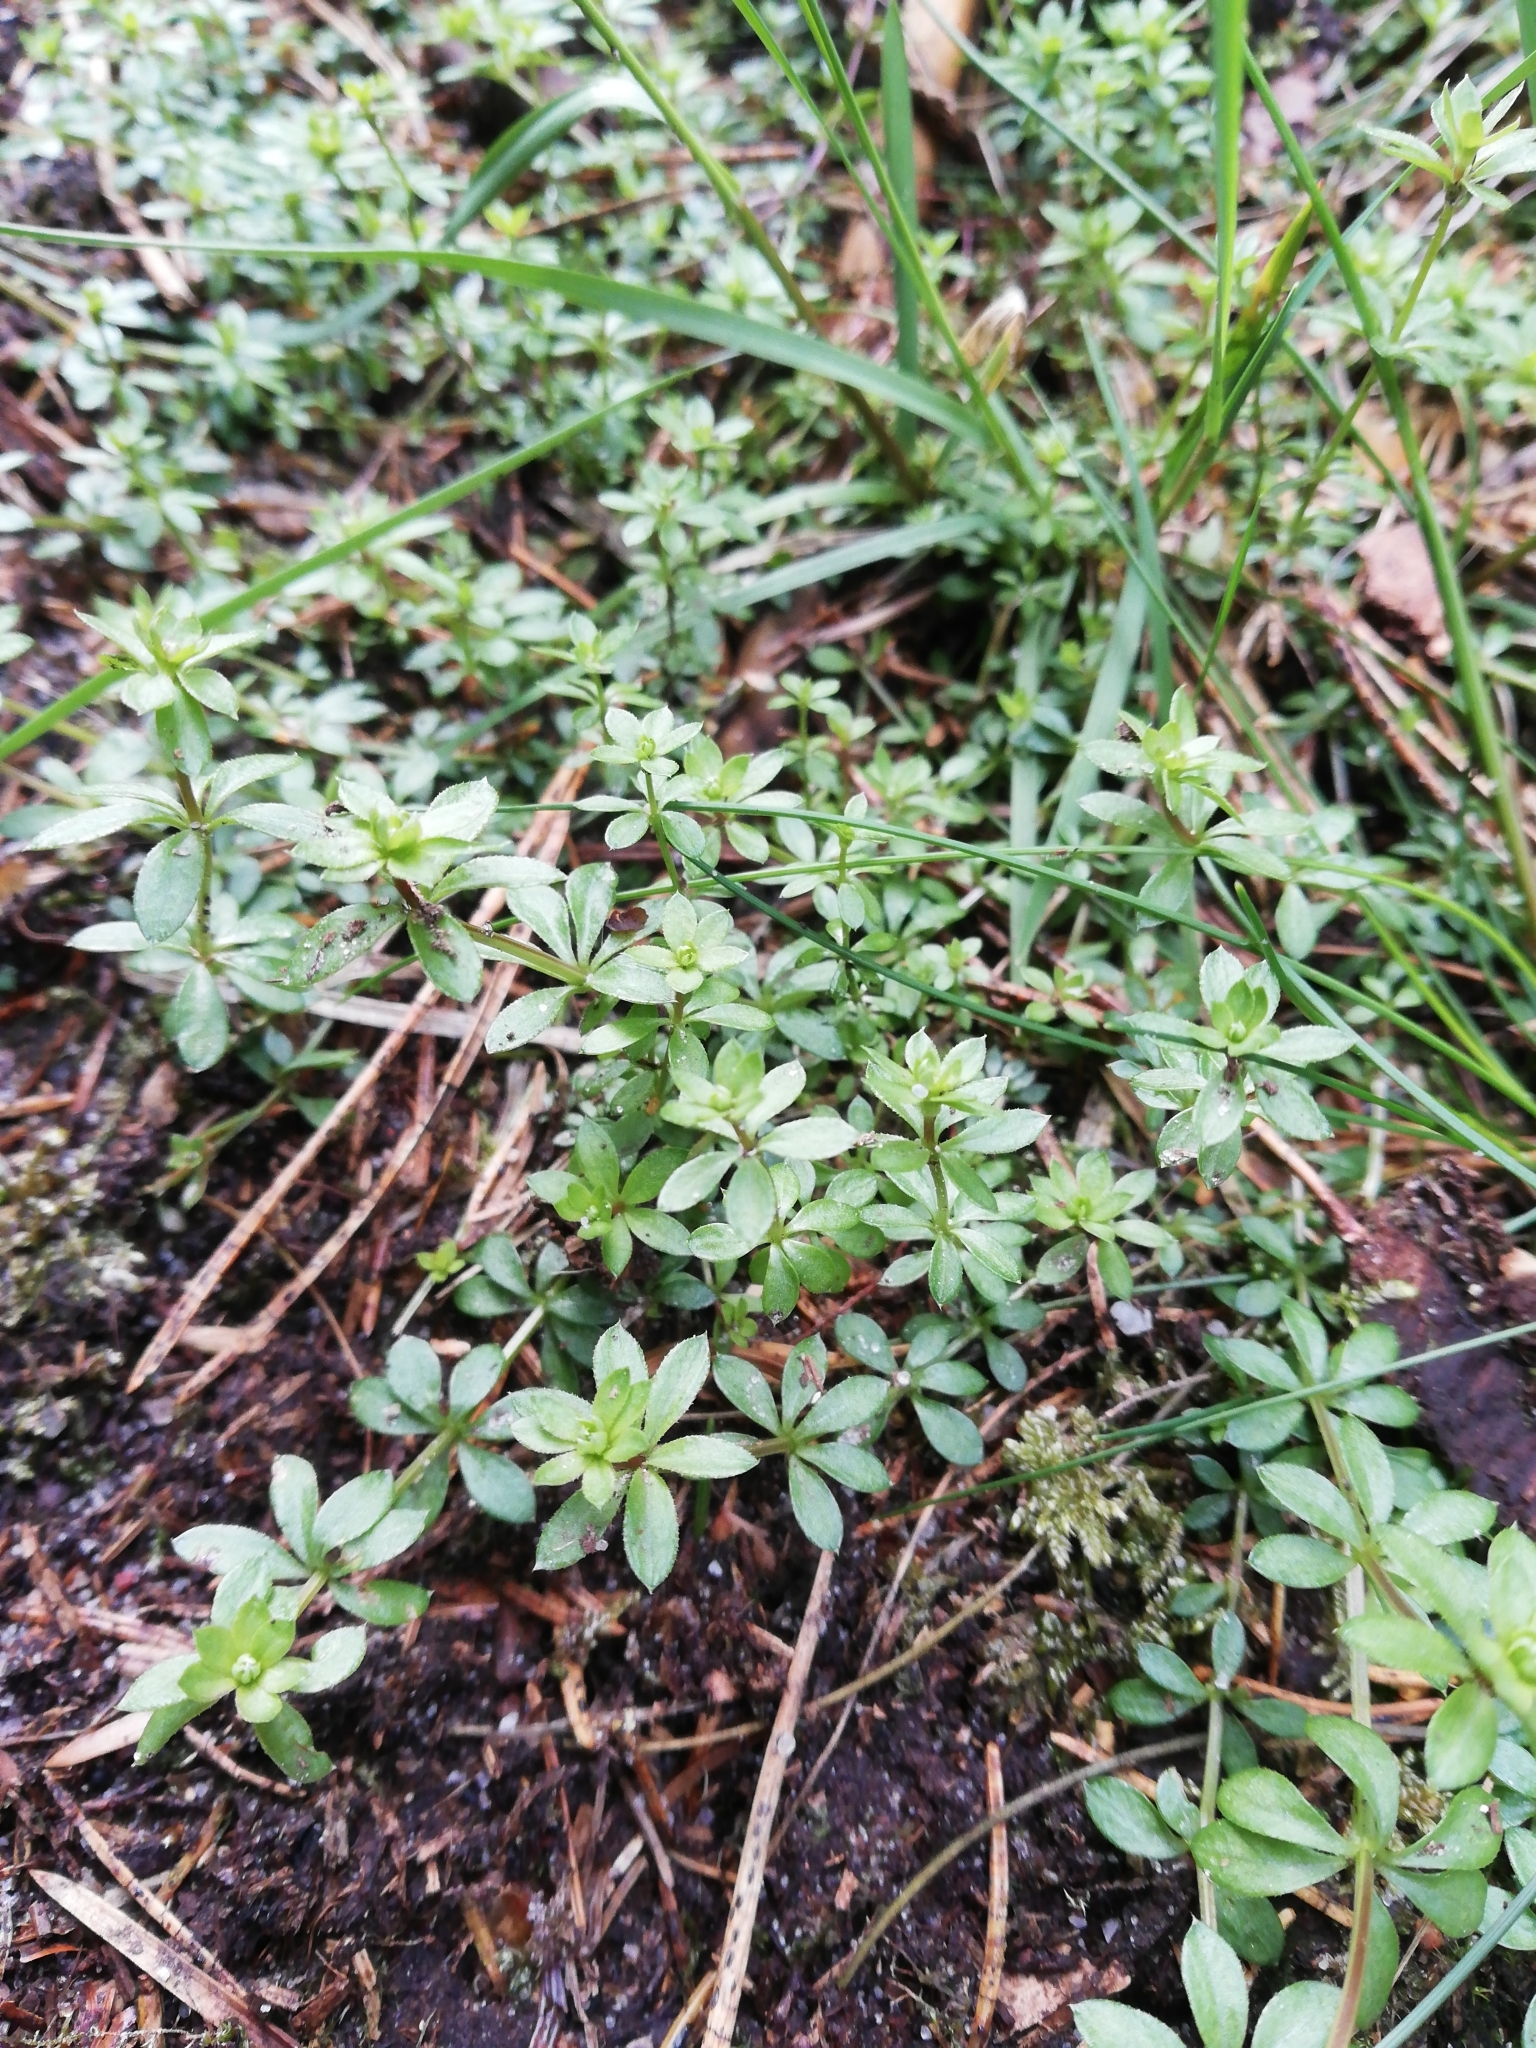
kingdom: Plantae
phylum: Tracheophyta
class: Magnoliopsida
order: Gentianales
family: Rubiaceae
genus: Galium
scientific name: Galium saxatile
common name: Heath bedstraw
